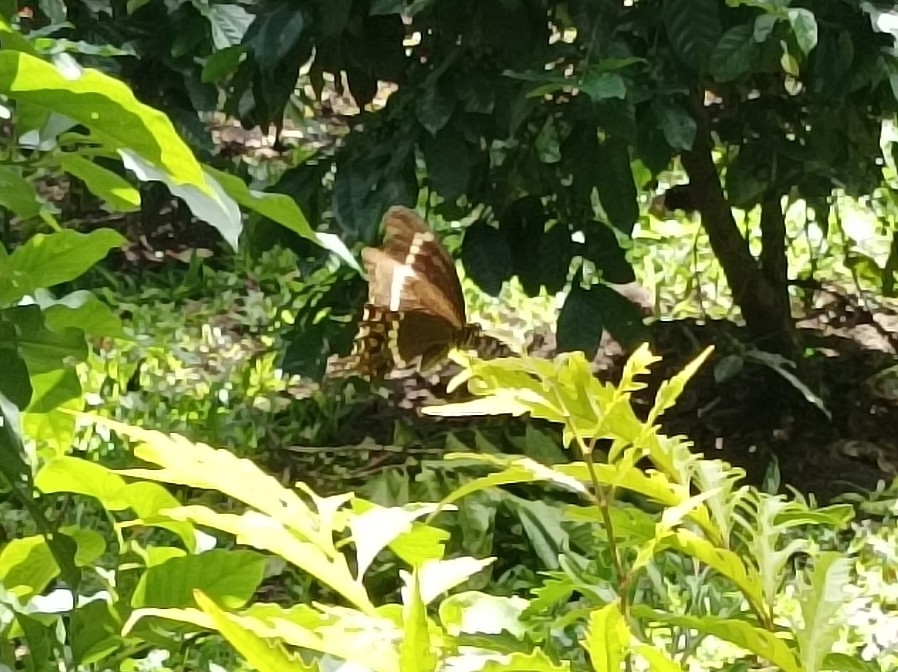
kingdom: Animalia
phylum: Arthropoda
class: Insecta
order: Lepidoptera
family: Papilionidae
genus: Papilio
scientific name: Papilio fuscus
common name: Fuscous swallowtail
